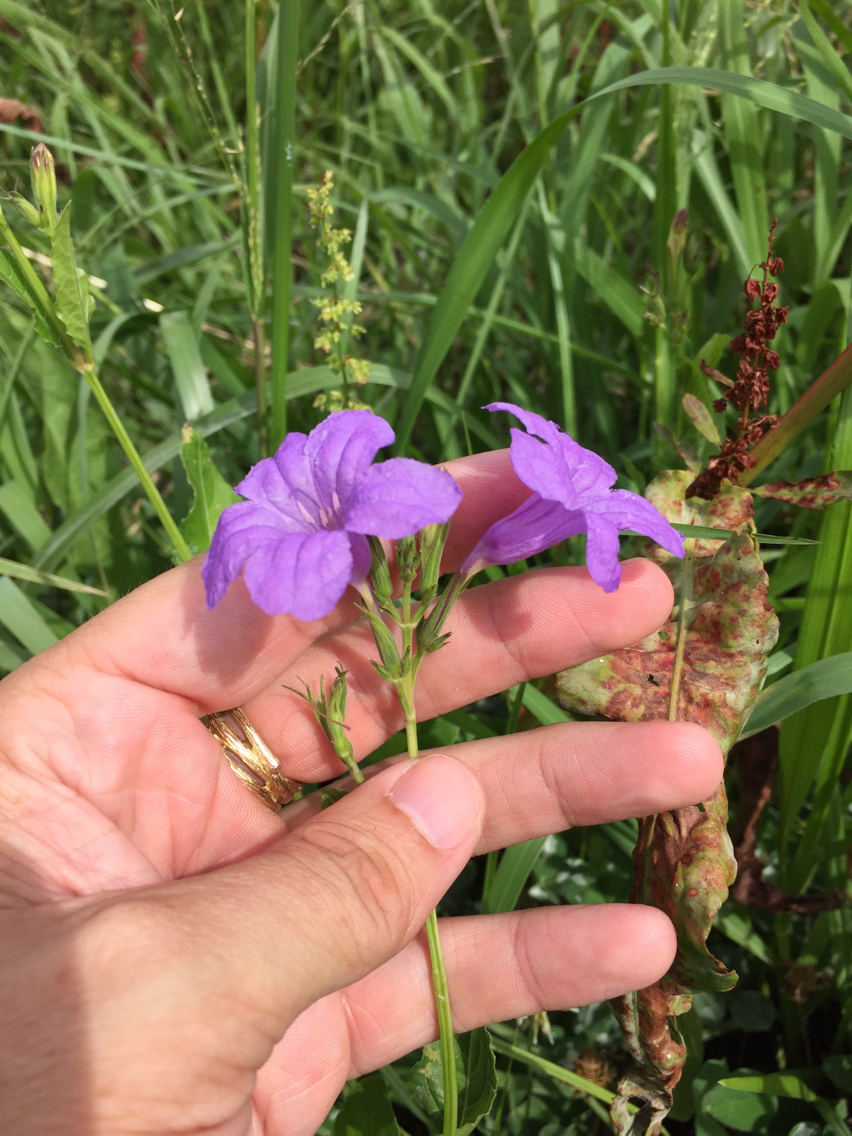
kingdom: Plantae
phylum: Tracheophyta
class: Magnoliopsida
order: Lamiales
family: Acanthaceae
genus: Ruellia
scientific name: Ruellia ciliatiflora
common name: Hairyflower wild petunia
